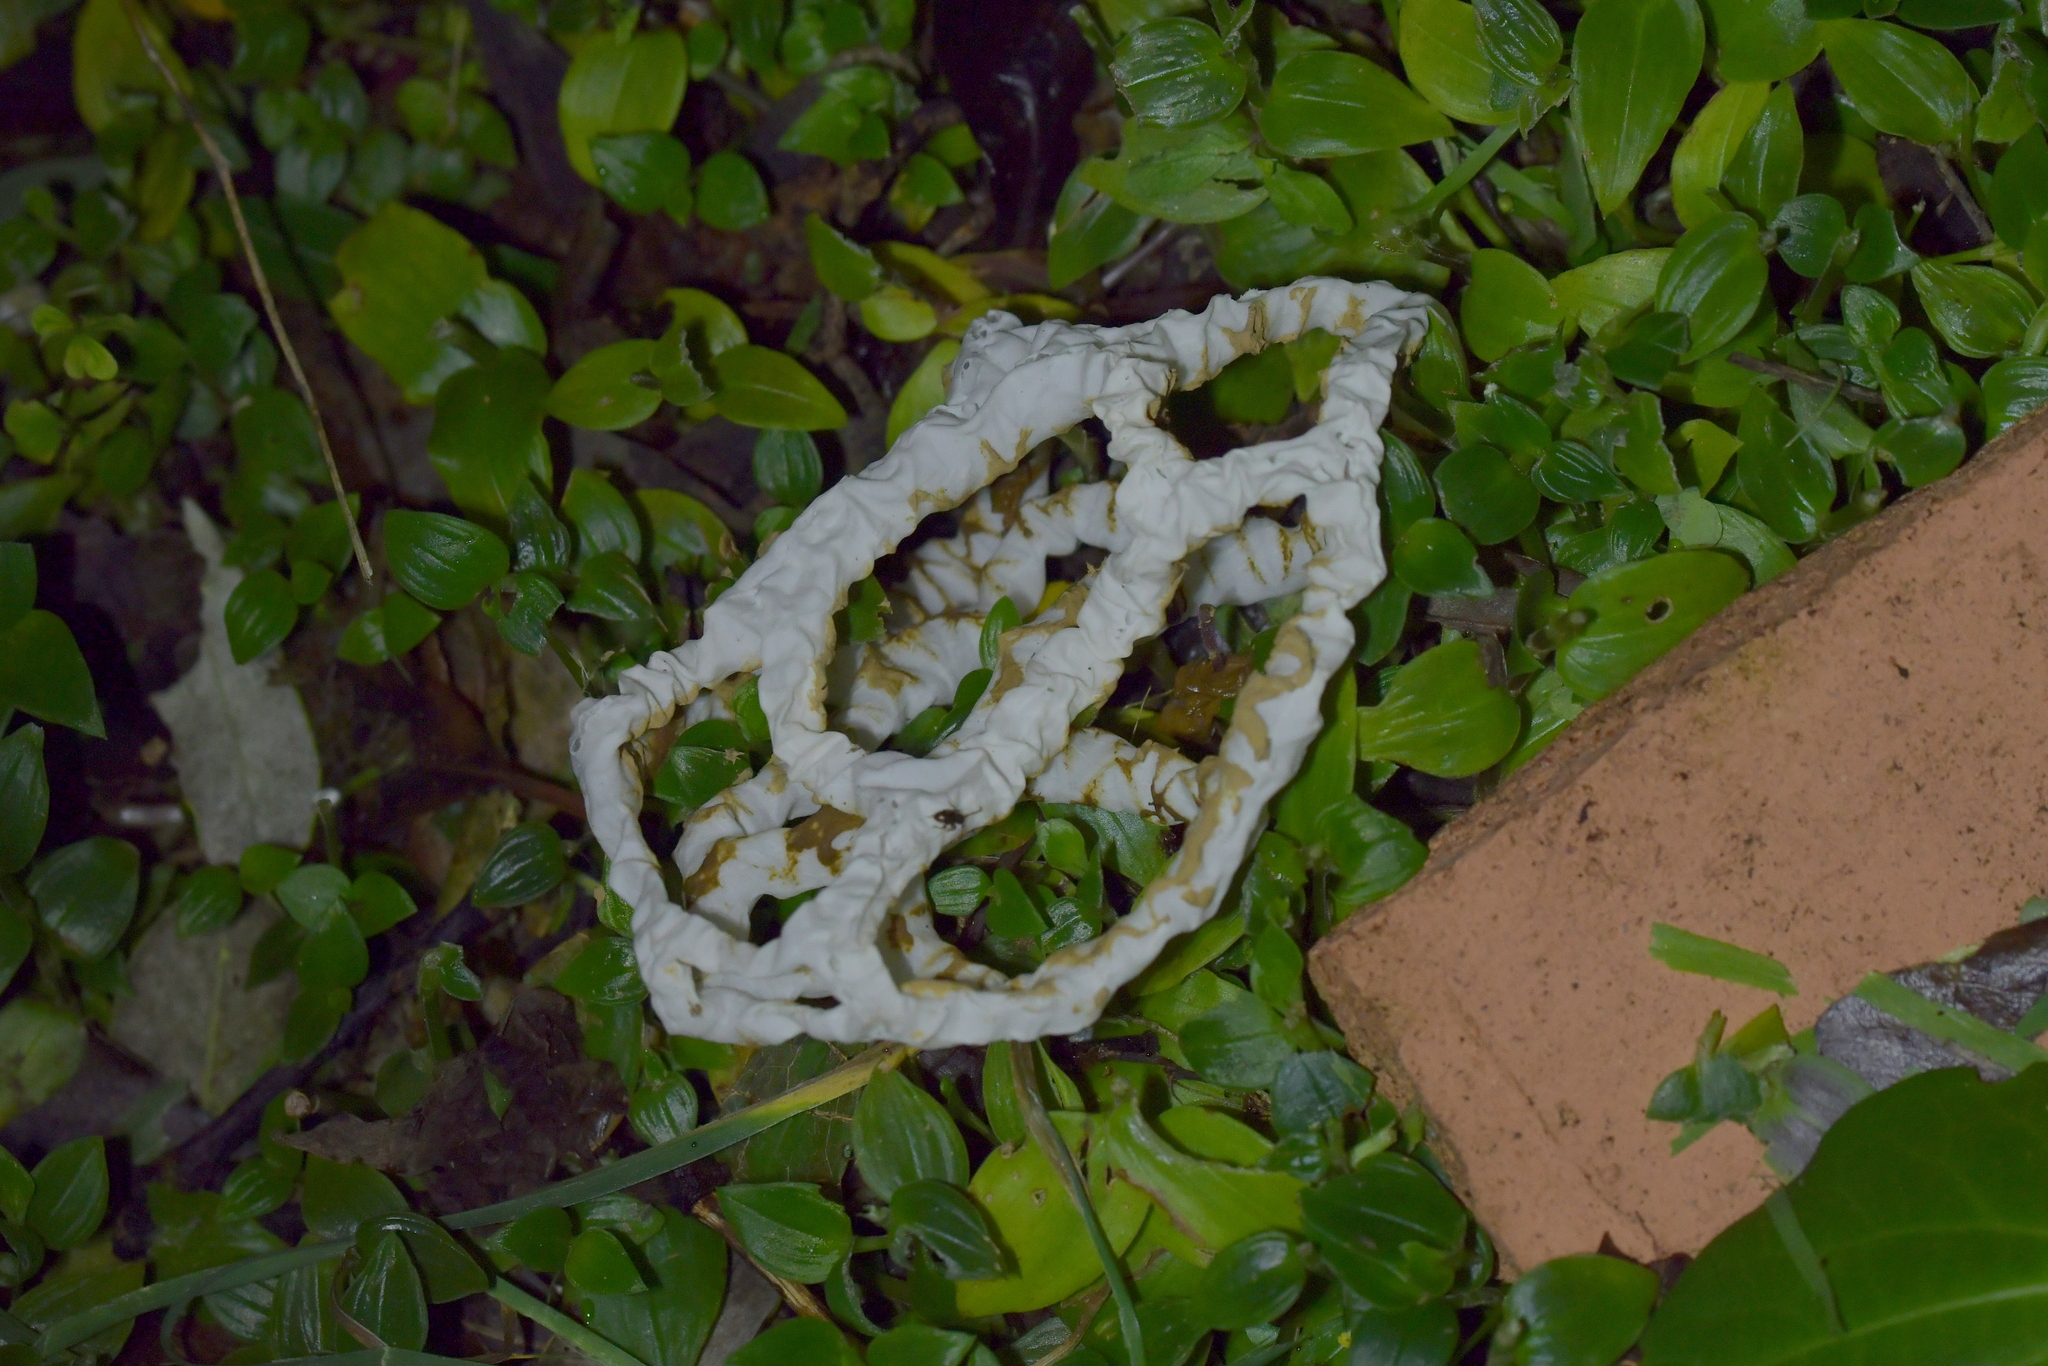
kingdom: Fungi
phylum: Basidiomycota
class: Agaricomycetes
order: Phallales
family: Phallaceae
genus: Ileodictyon
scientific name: Ileodictyon cibarium
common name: Basket fungus
